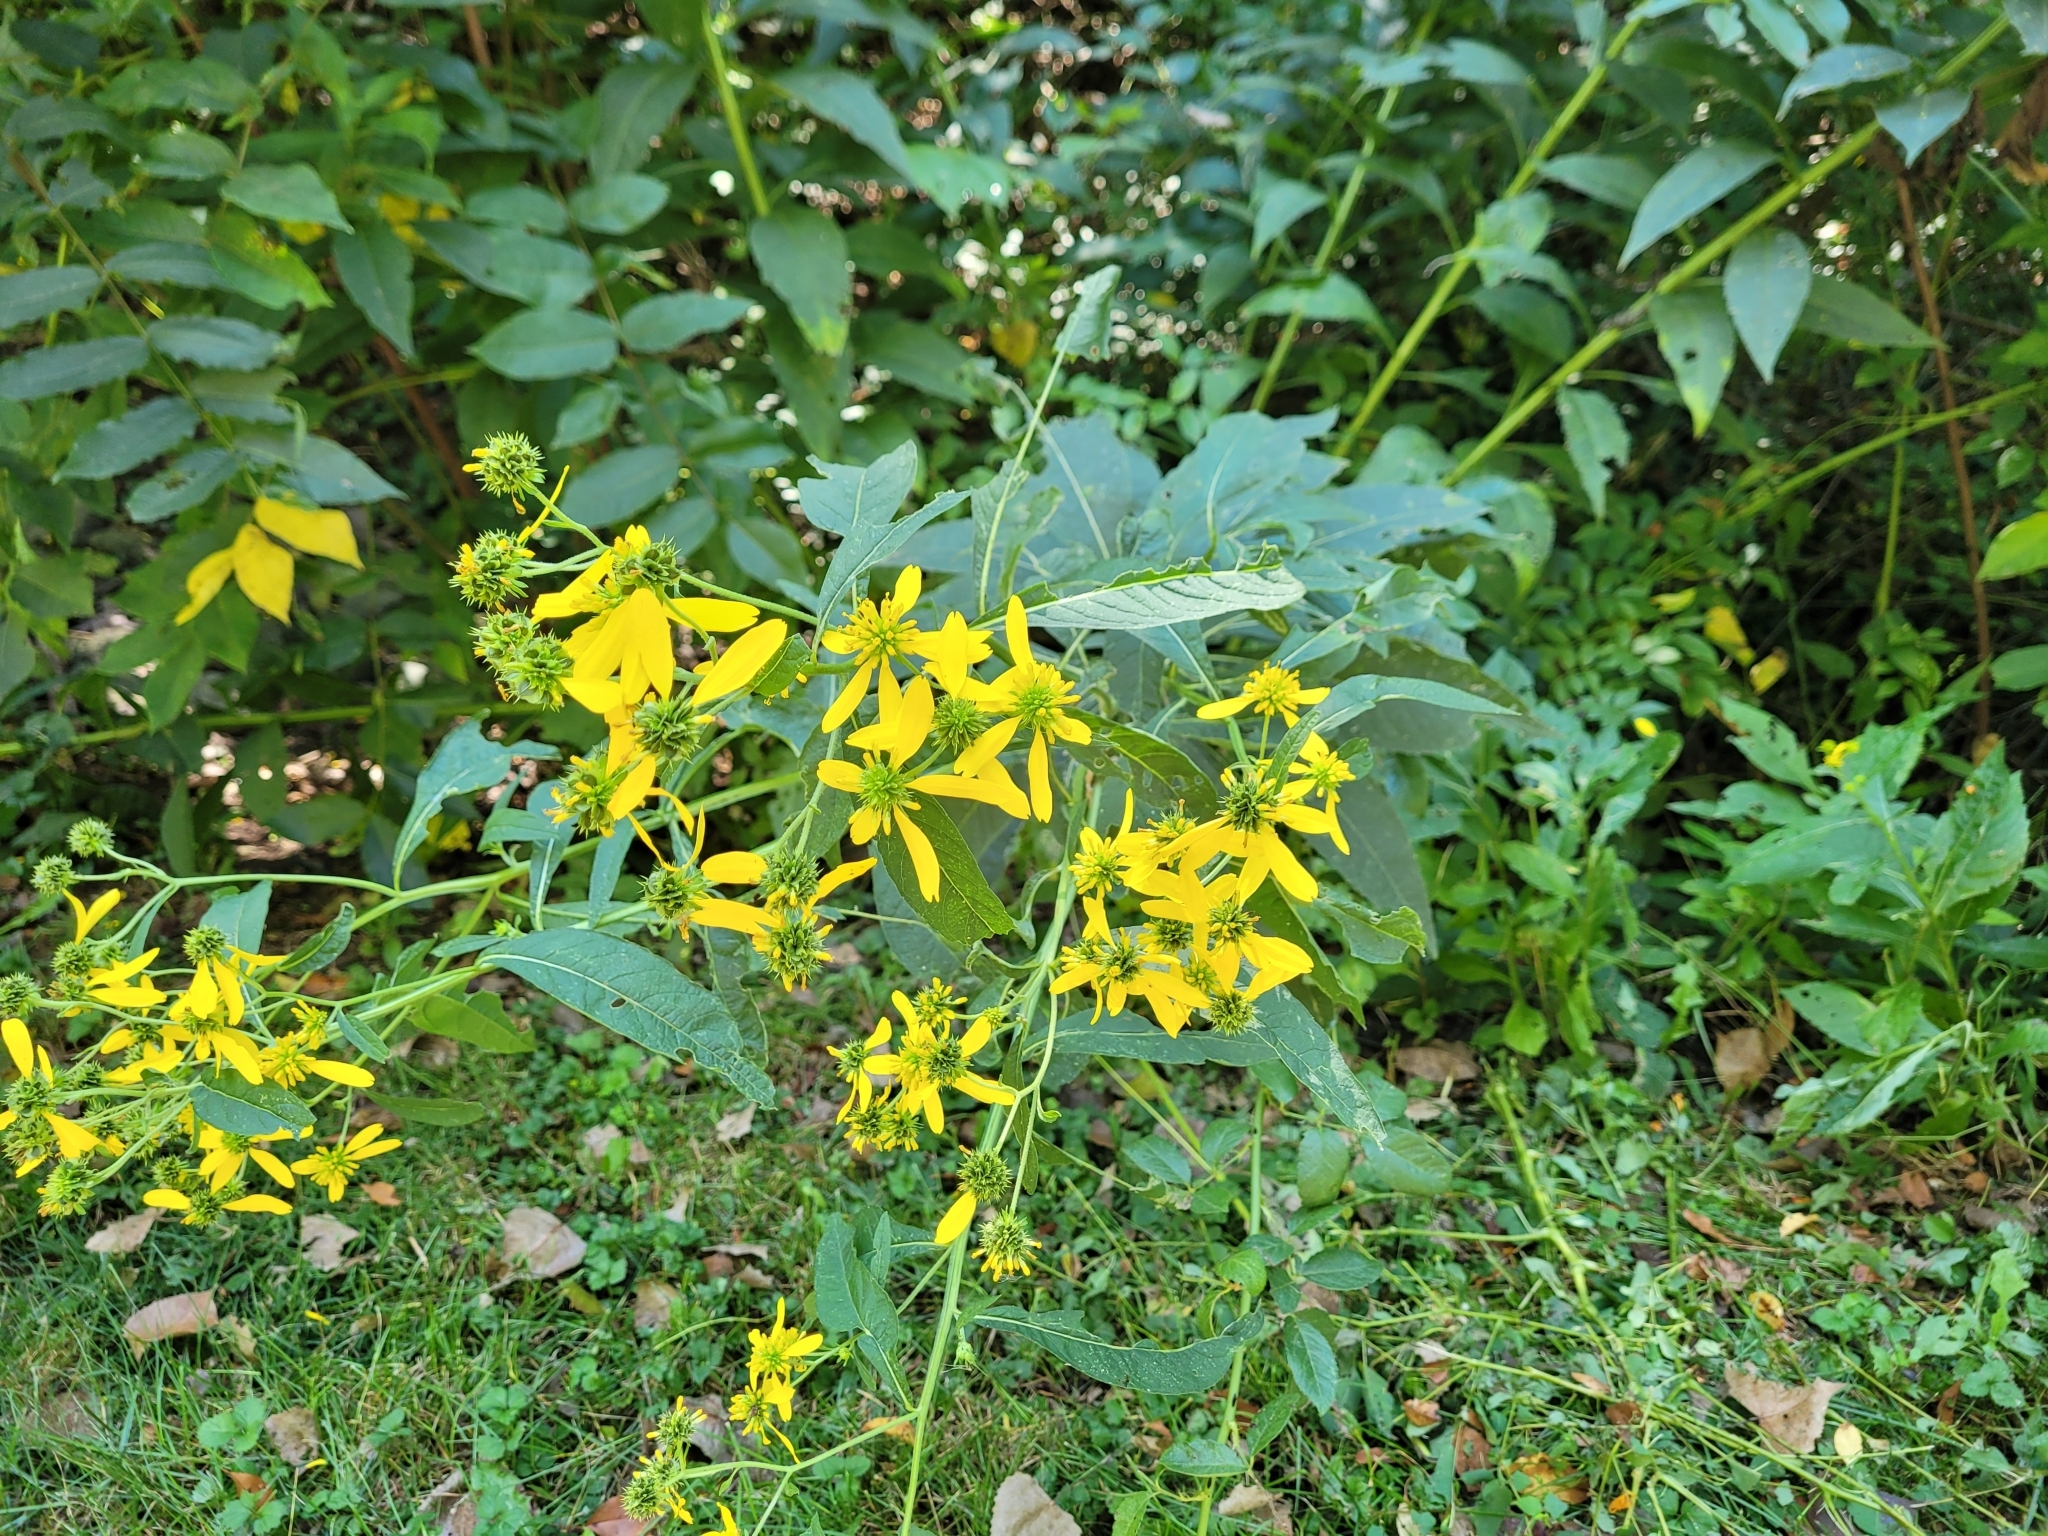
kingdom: Plantae
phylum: Tracheophyta
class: Magnoliopsida
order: Asterales
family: Asteraceae
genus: Verbesina
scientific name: Verbesina alternifolia
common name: Wingstem
